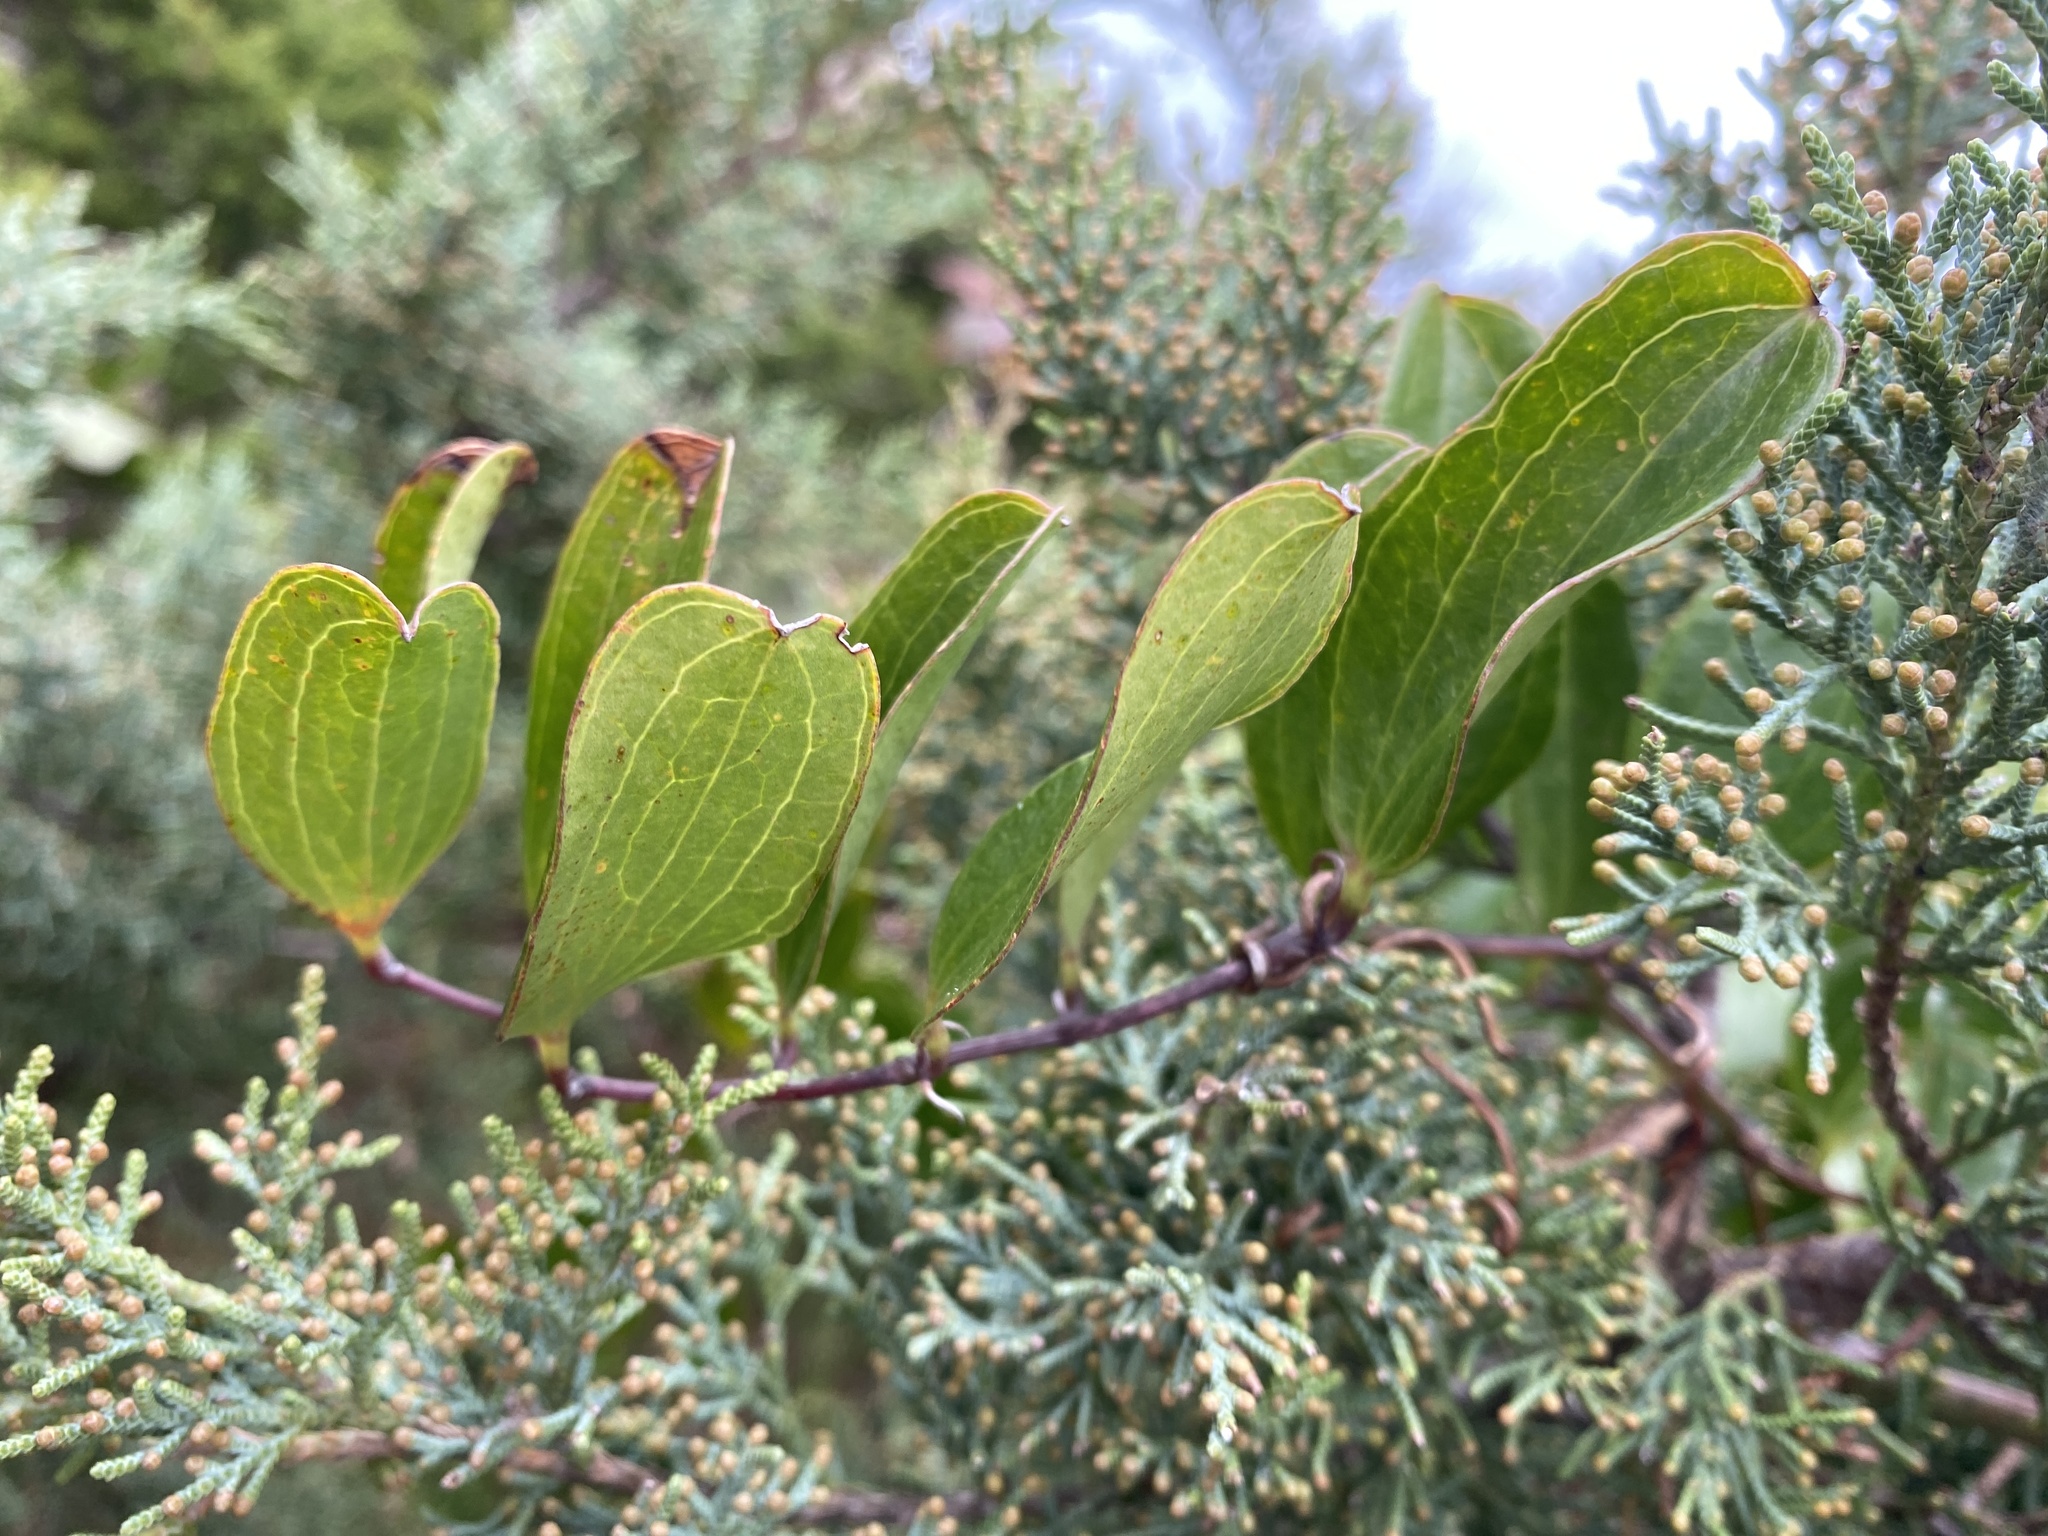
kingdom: Plantae
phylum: Tracheophyta
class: Liliopsida
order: Liliales
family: Smilacaceae
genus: Smilax
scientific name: Smilax auriculata
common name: Wild bamboo
